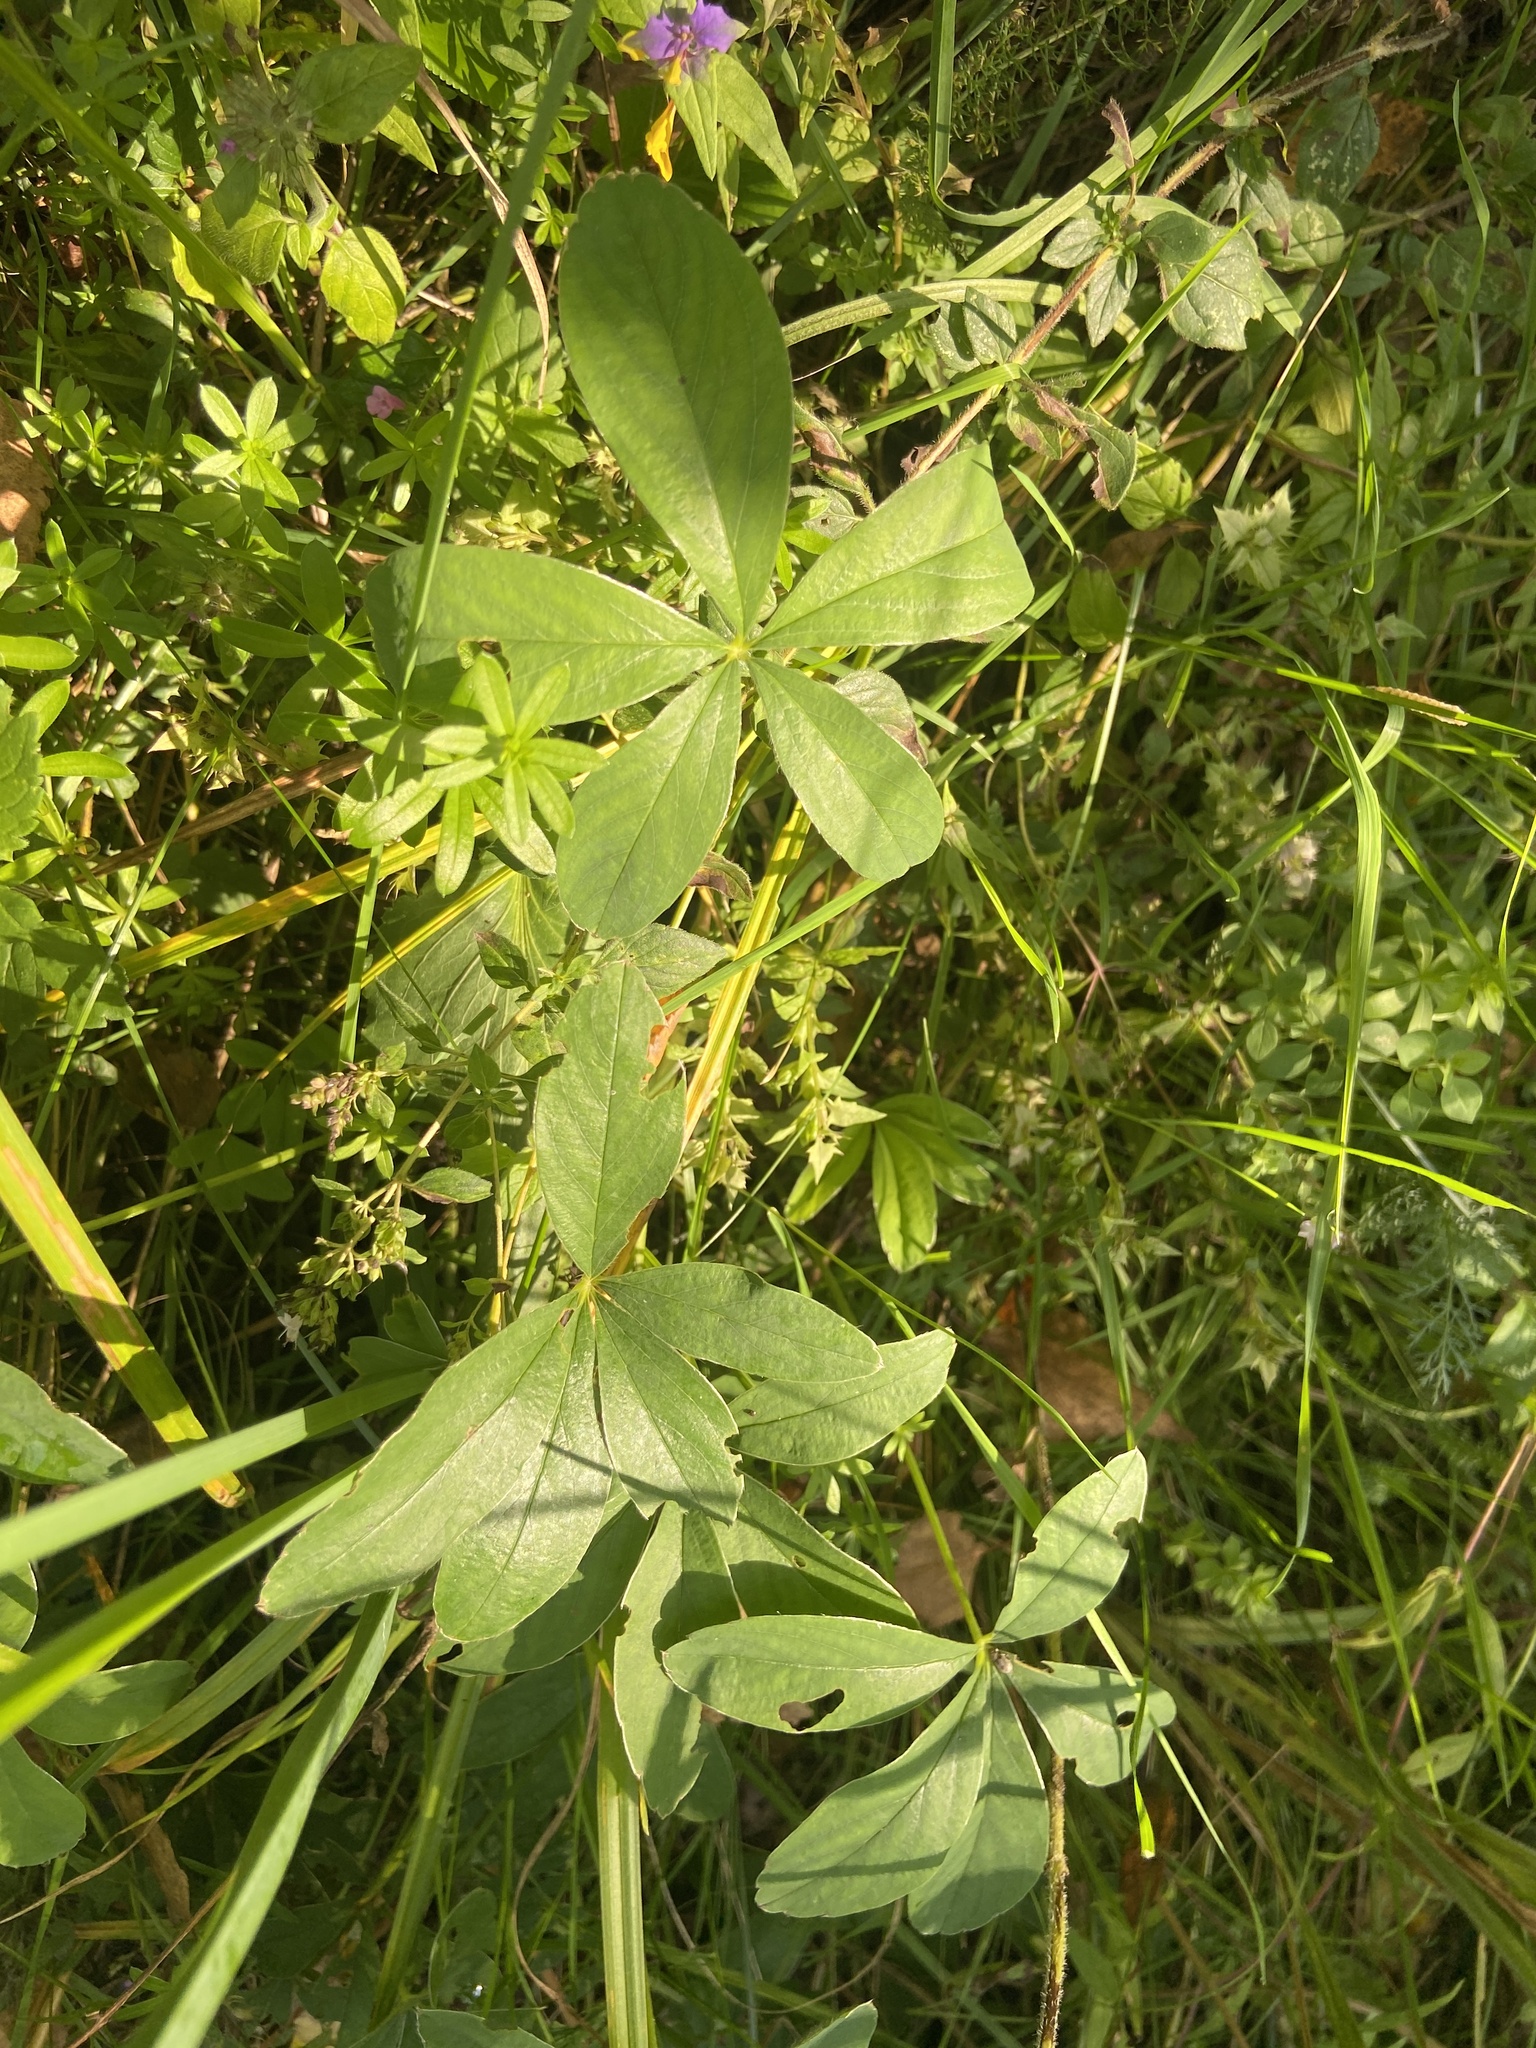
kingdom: Plantae
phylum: Tracheophyta
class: Magnoliopsida
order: Rosales
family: Rosaceae
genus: Potentilla
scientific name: Potentilla alba
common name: White cinquefoil
